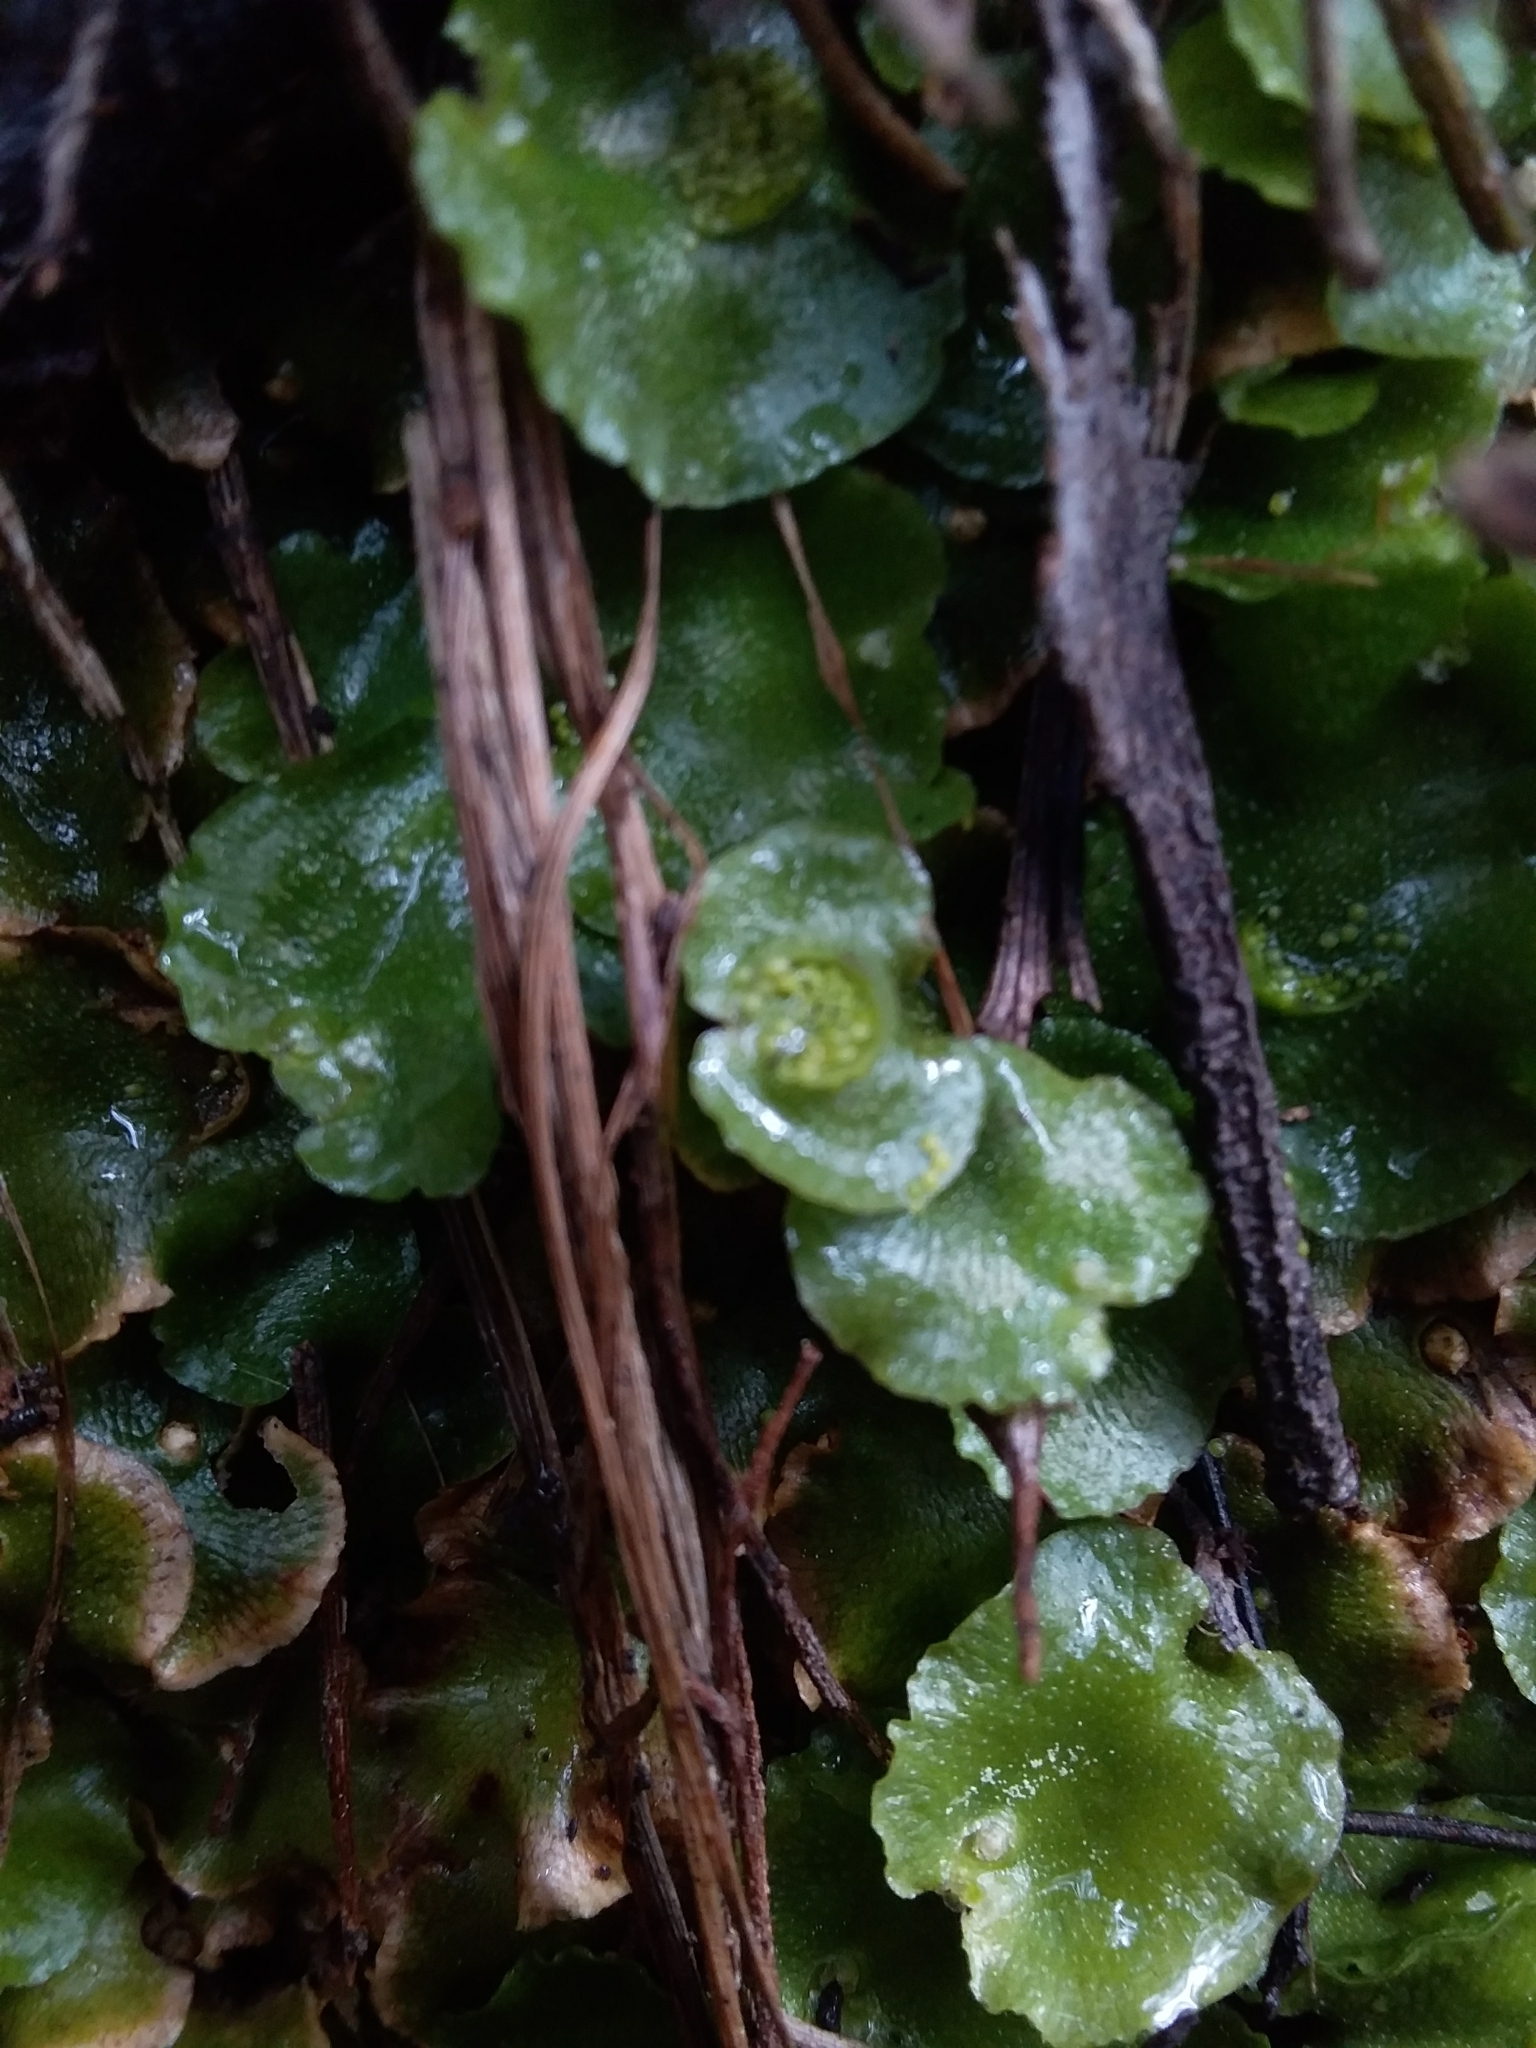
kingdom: Plantae
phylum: Marchantiophyta
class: Marchantiopsida
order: Lunulariales
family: Lunulariaceae
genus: Lunularia
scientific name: Lunularia cruciata
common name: Crescent-cup liverwort
